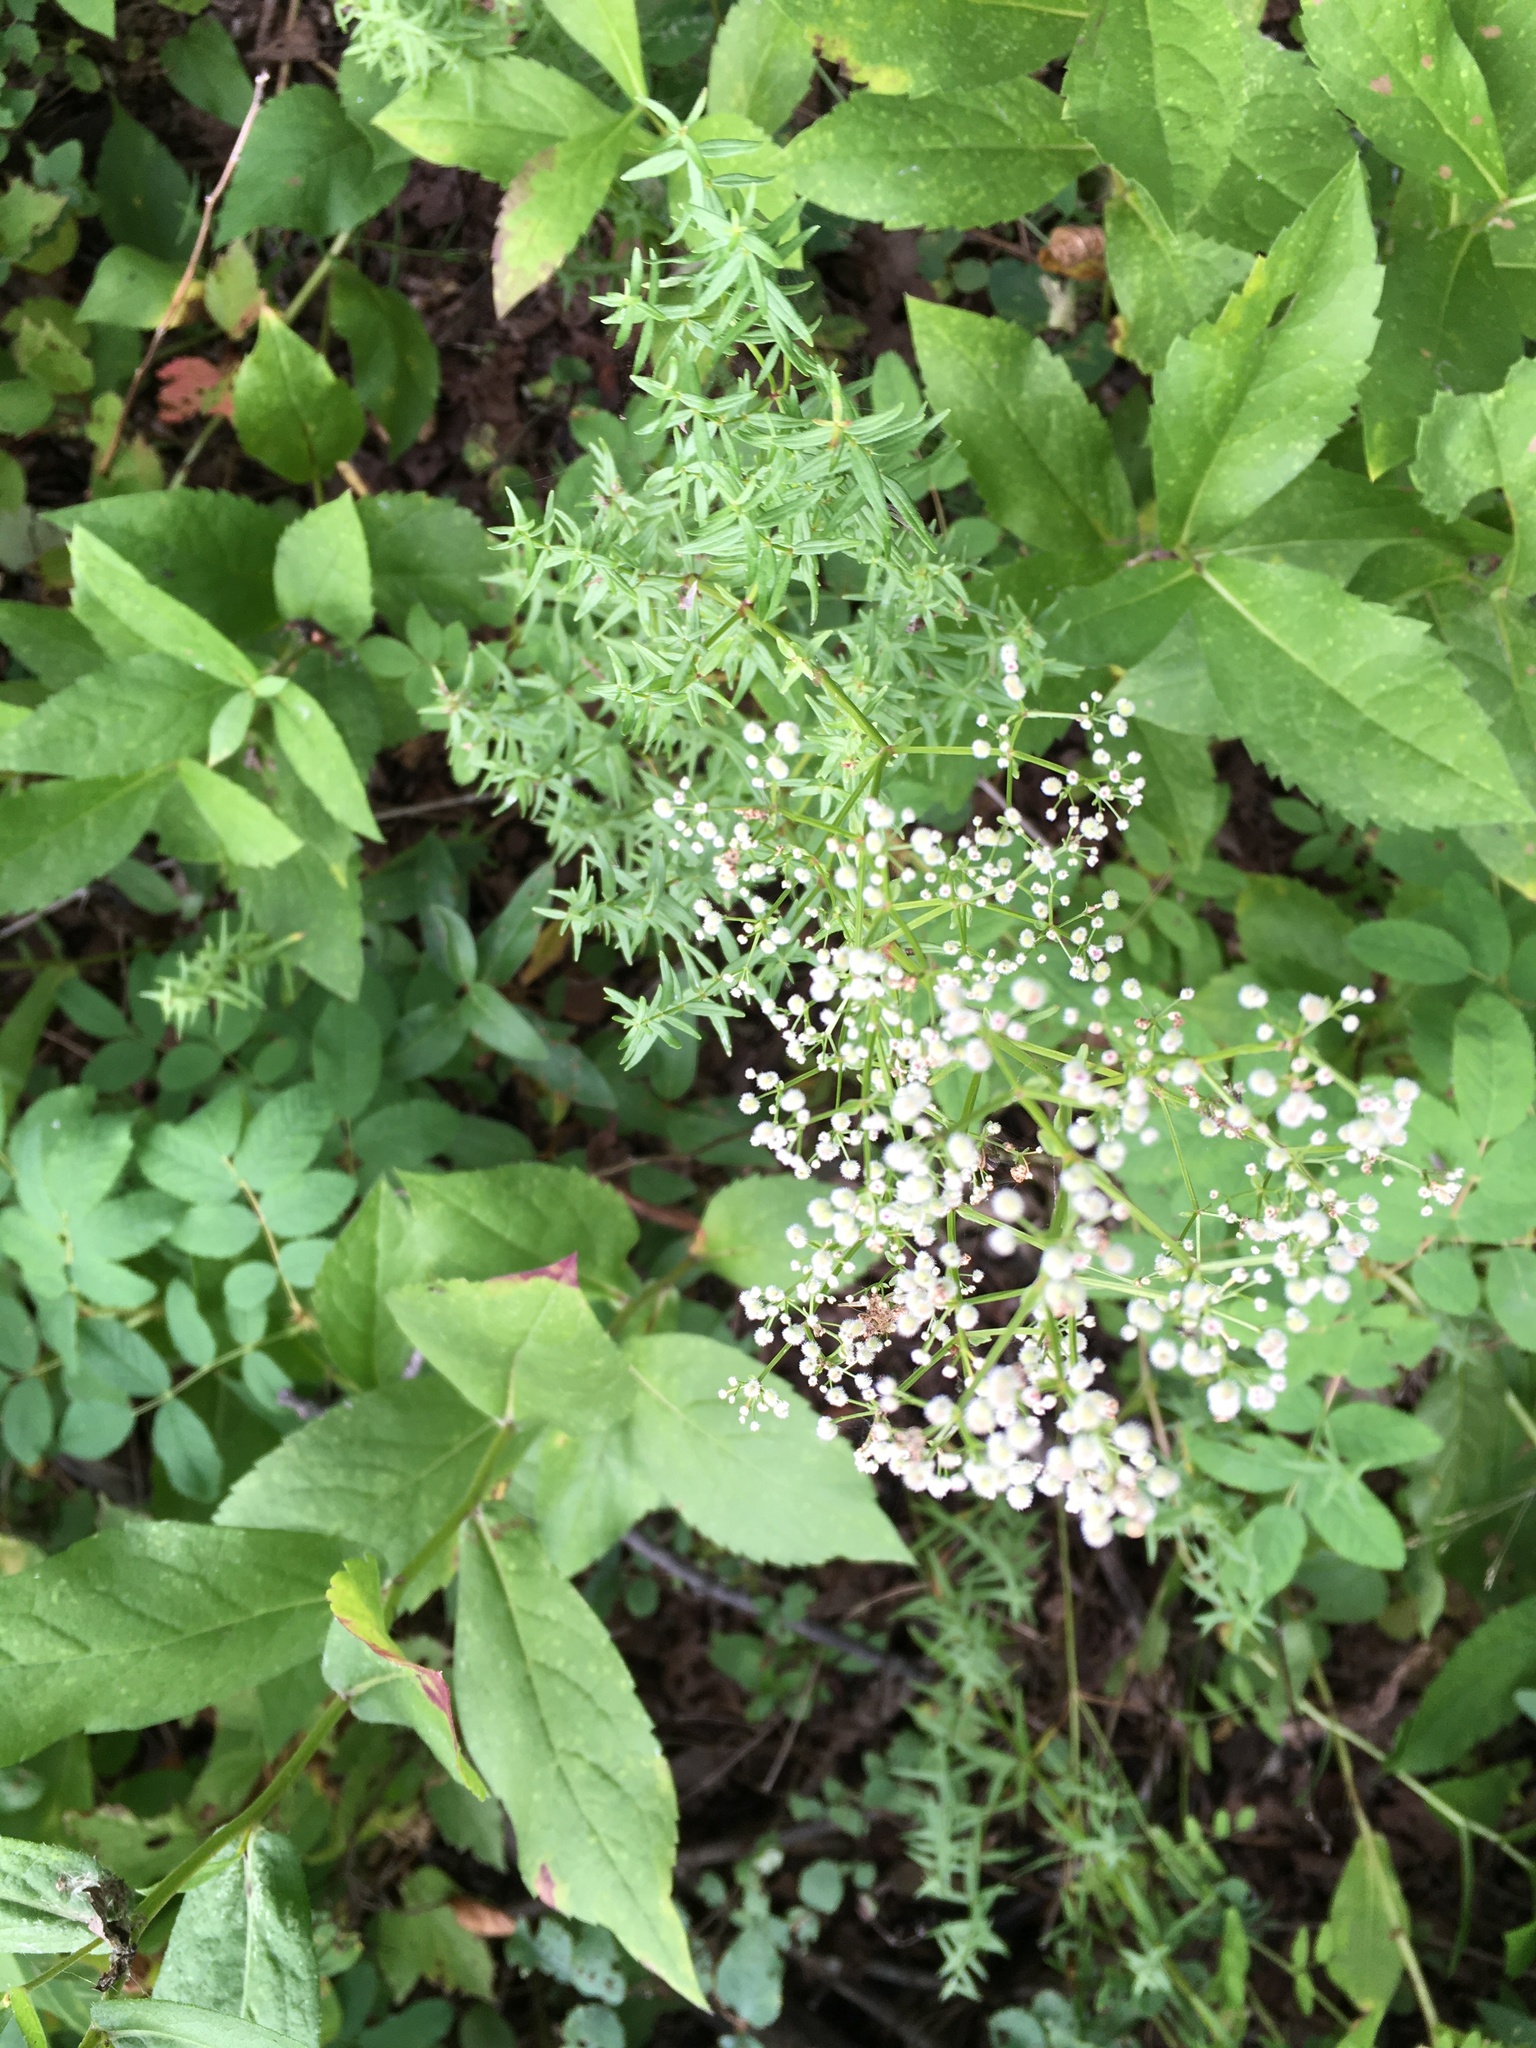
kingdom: Plantae
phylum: Tracheophyta
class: Magnoliopsida
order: Gentianales
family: Rubiaceae
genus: Galium
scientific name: Galium boreale
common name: Northern bedstraw
